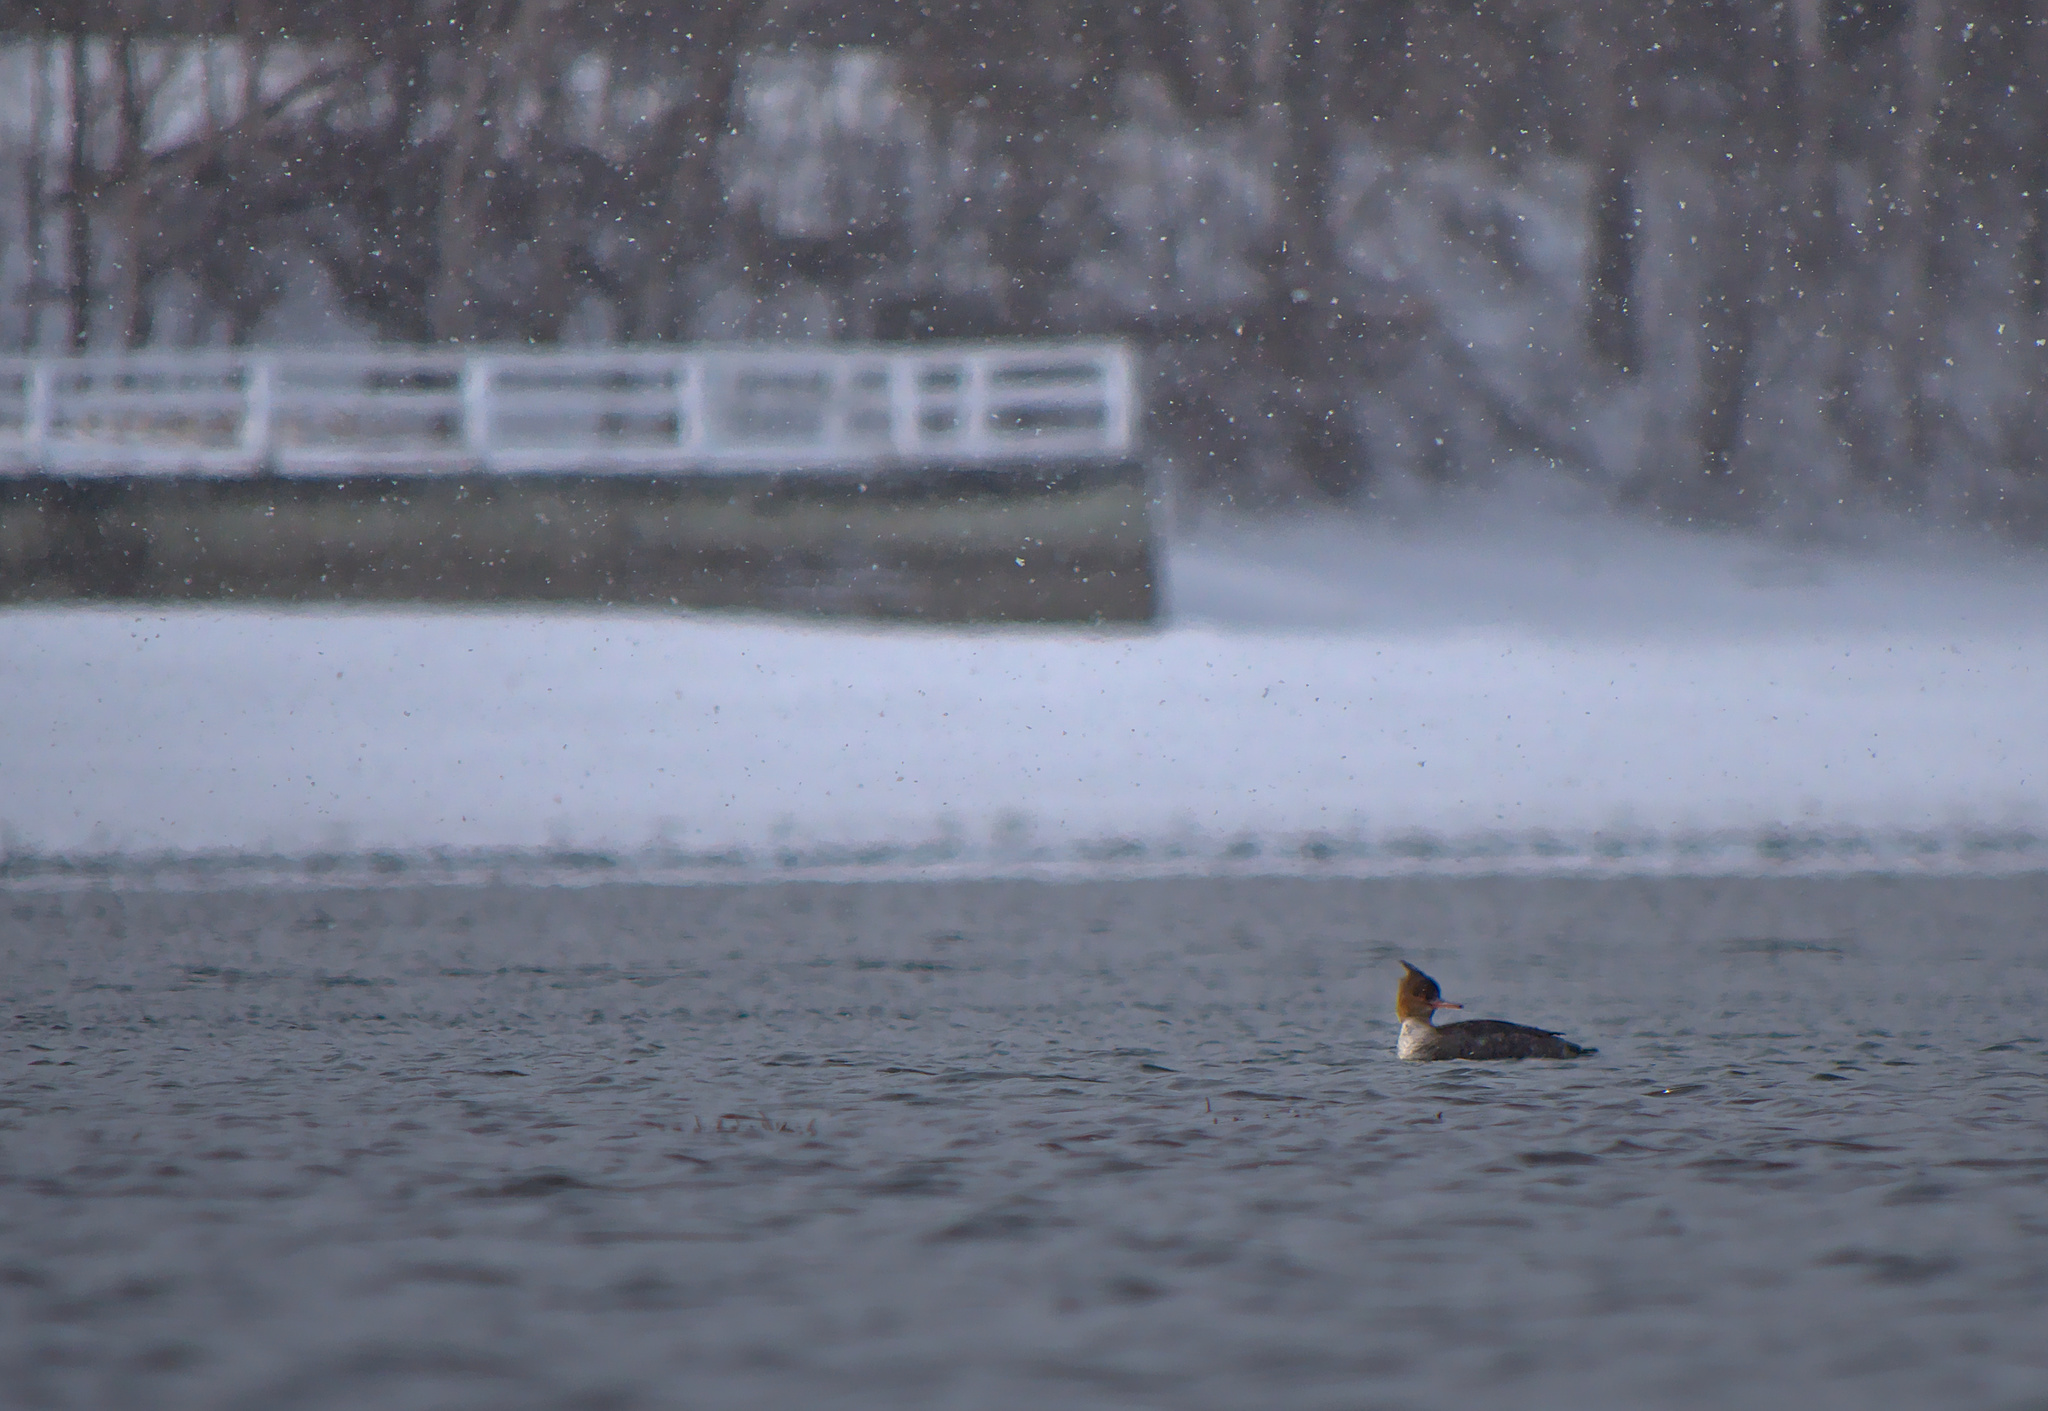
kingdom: Animalia
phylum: Chordata
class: Aves
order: Anseriformes
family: Anatidae
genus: Mergus
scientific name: Mergus serrator
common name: Red-breasted merganser
